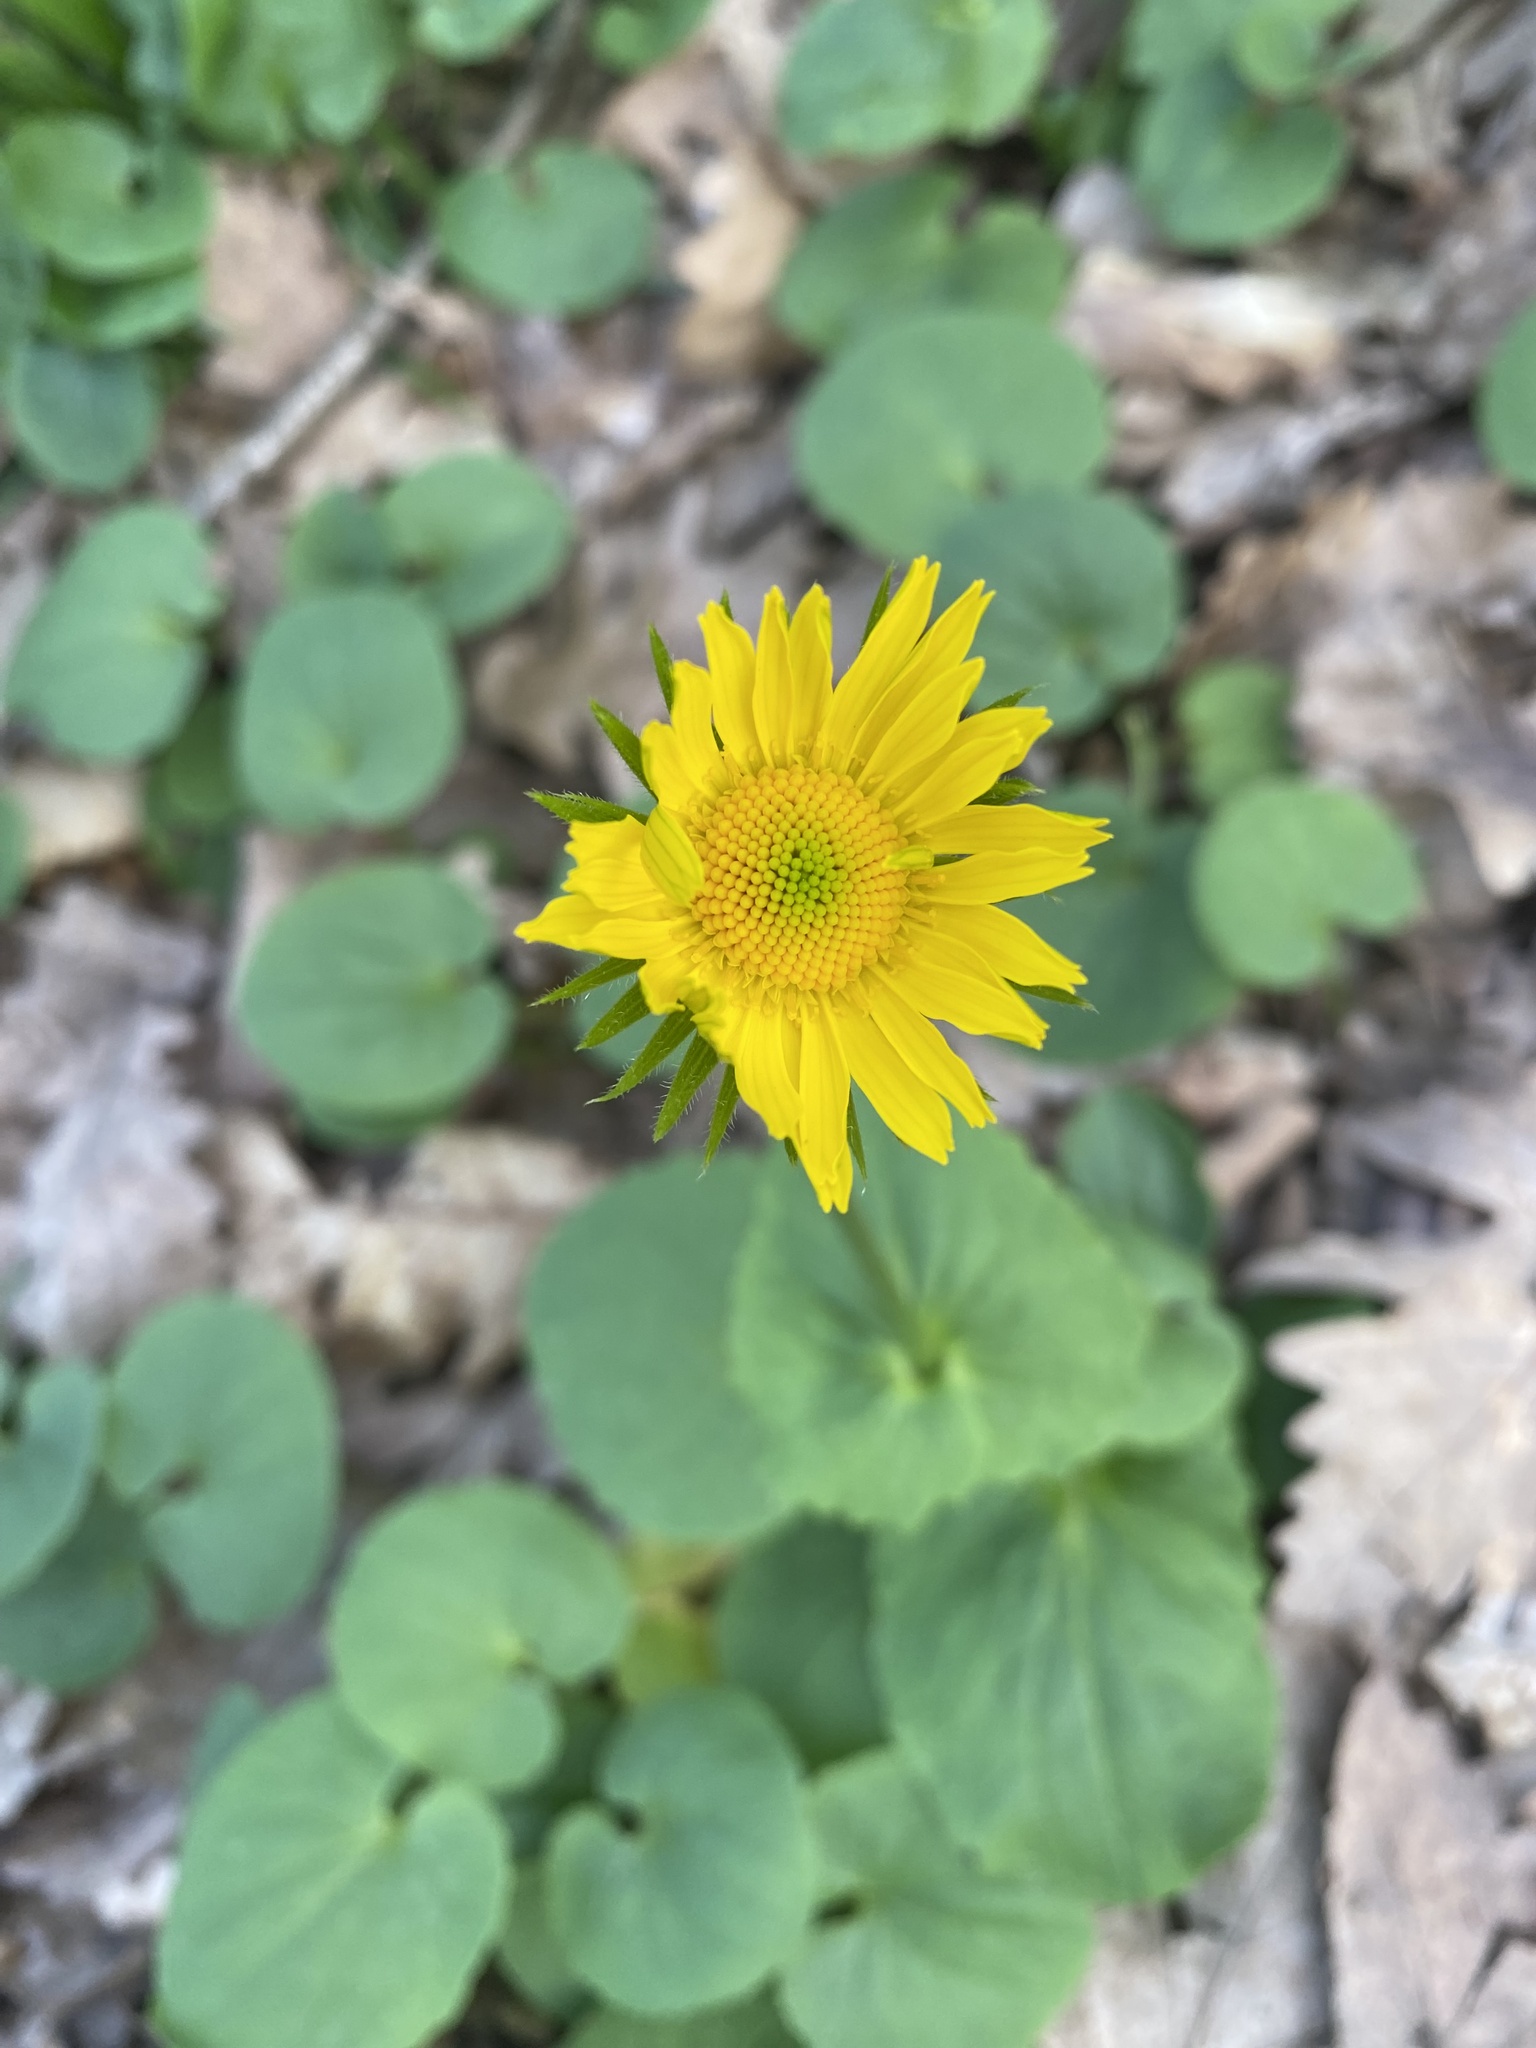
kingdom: Plantae
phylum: Tracheophyta
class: Magnoliopsida
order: Asterales
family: Asteraceae
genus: Doronicum
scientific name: Doronicum
